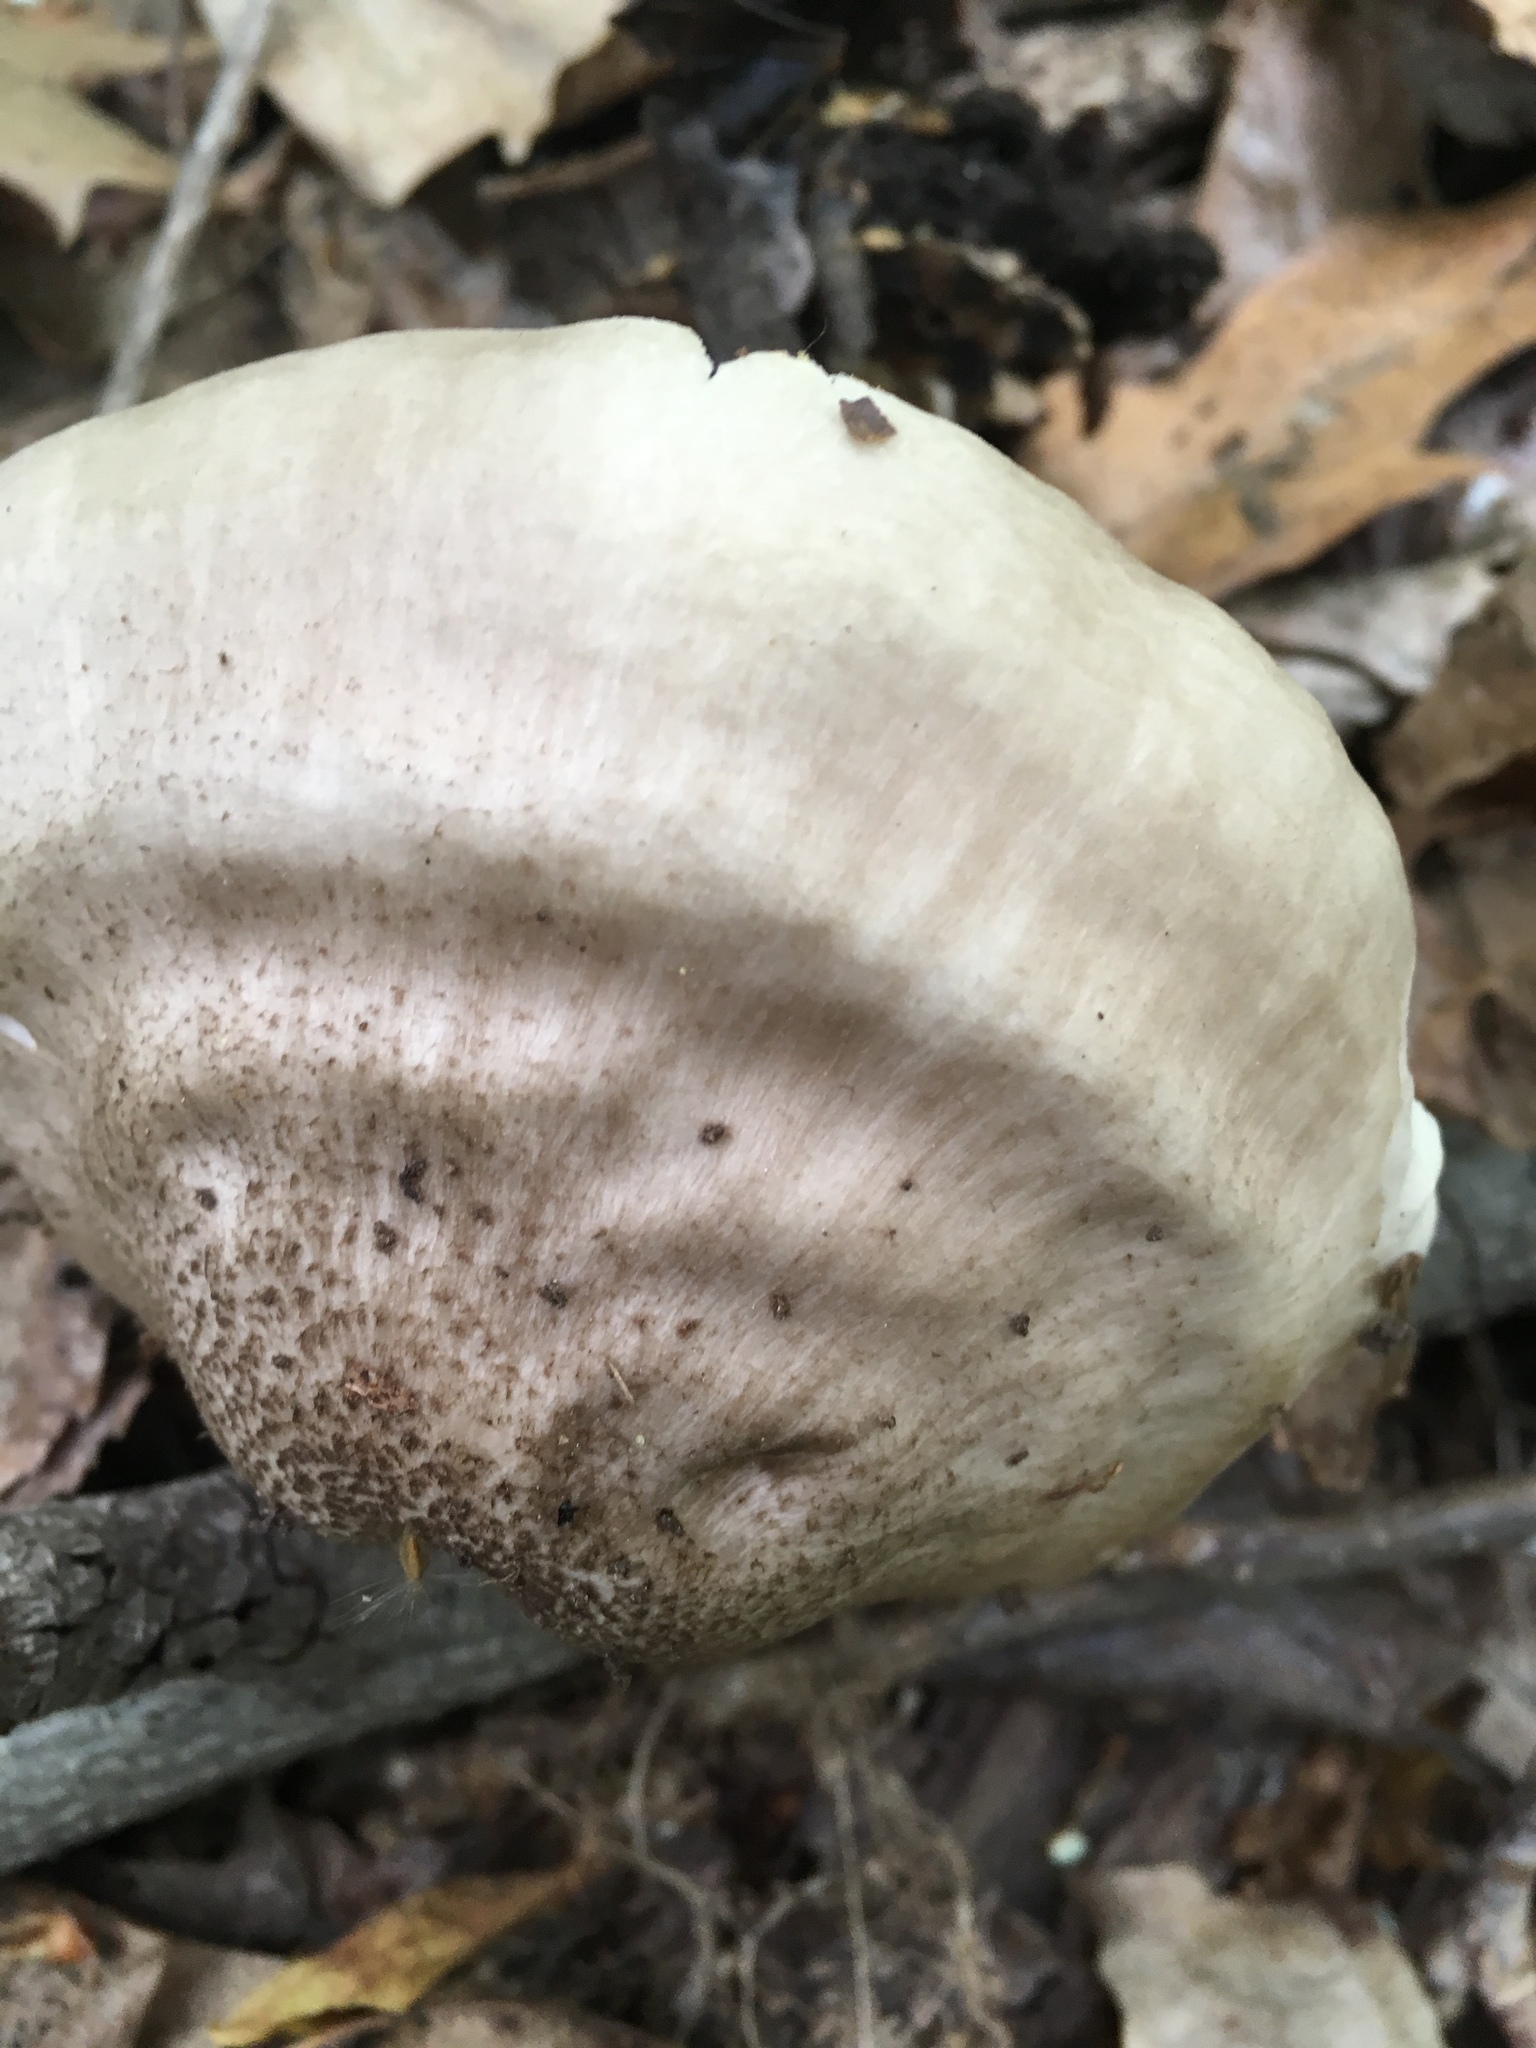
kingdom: Fungi
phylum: Basidiomycota
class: Agaricomycetes
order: Agaricales
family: Pluteaceae
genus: Pluteus
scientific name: Pluteus cervinus
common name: Deer shield
